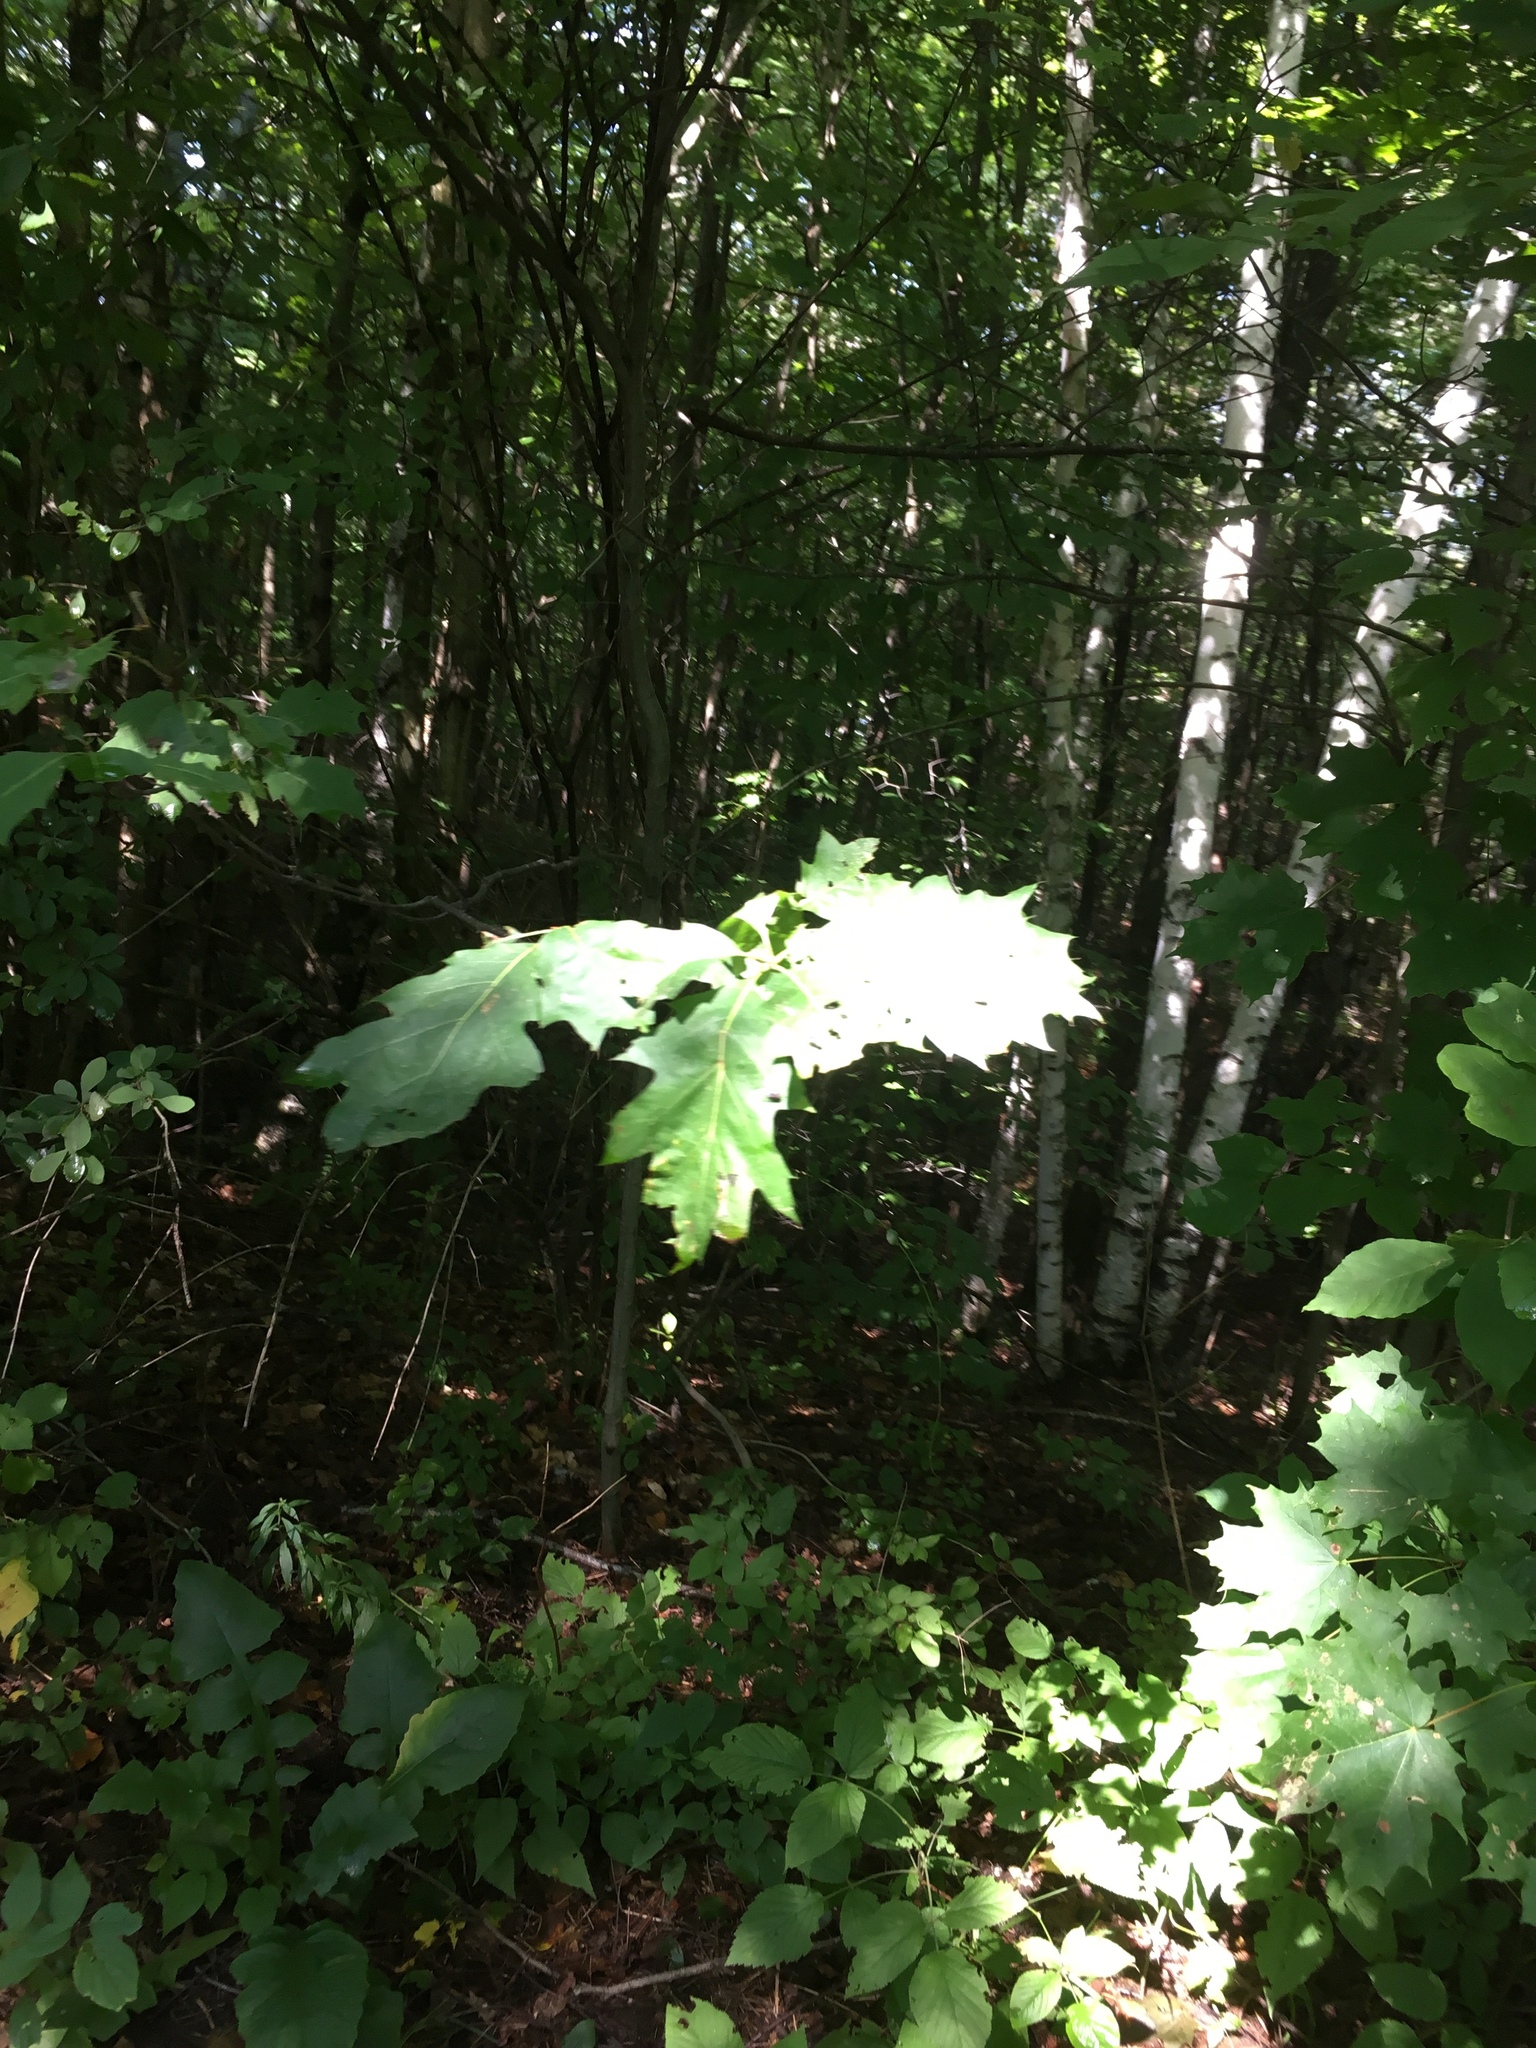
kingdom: Plantae
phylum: Tracheophyta
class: Magnoliopsida
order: Fagales
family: Fagaceae
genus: Quercus
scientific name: Quercus rubra
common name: Red oak
